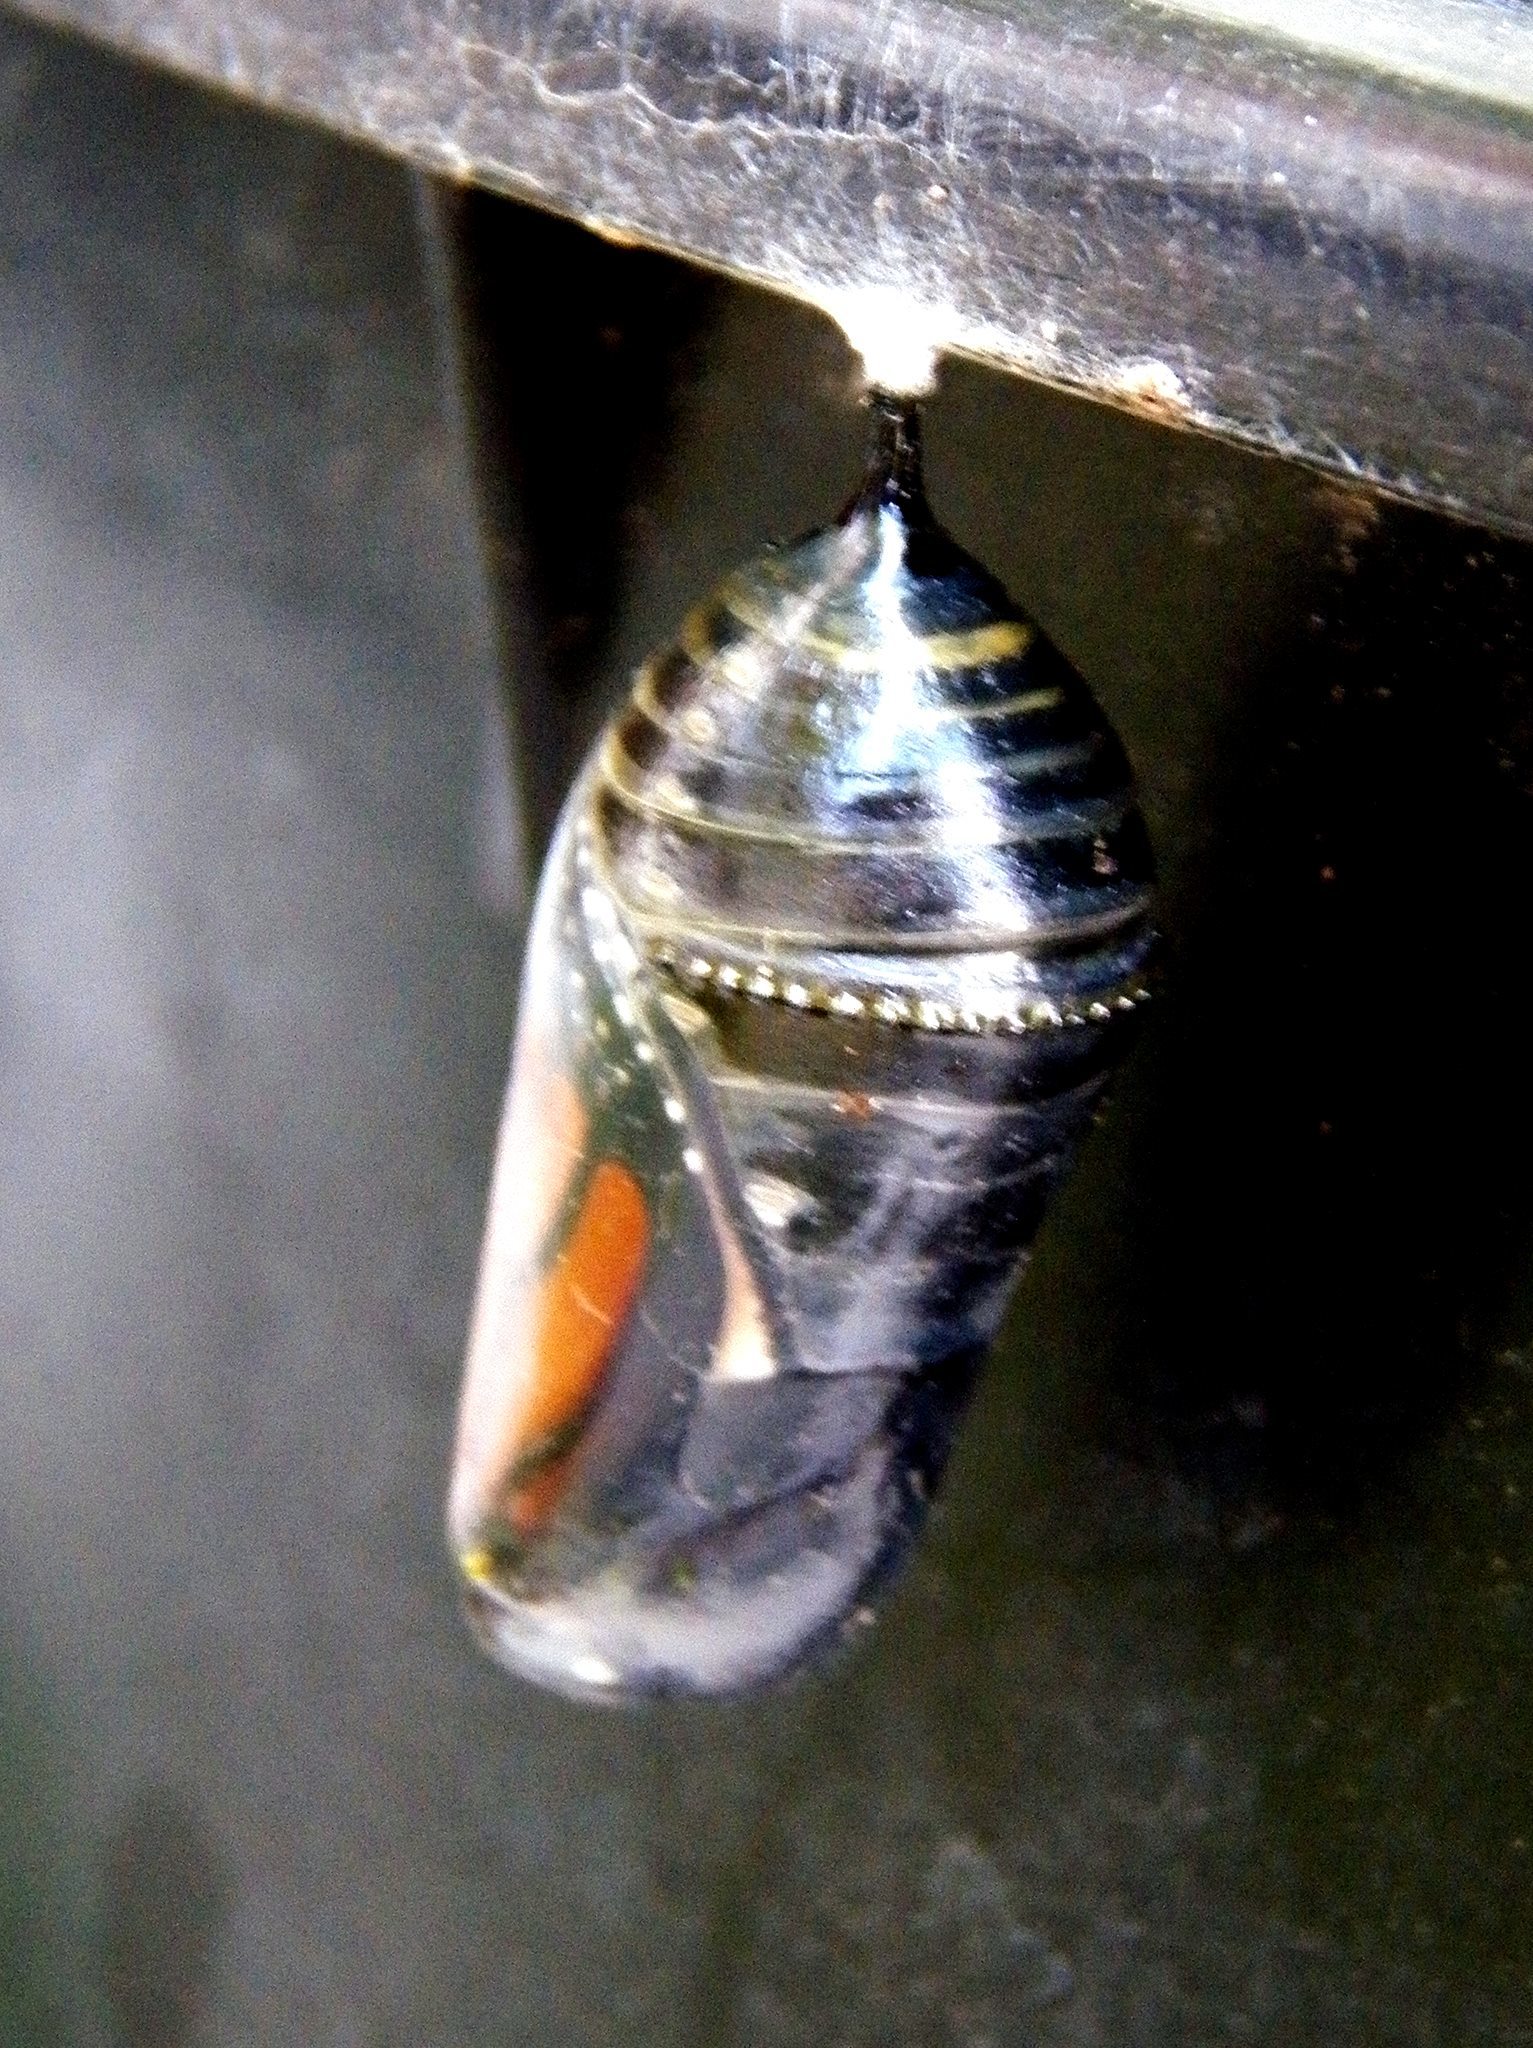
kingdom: Animalia
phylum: Arthropoda
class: Insecta
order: Lepidoptera
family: Nymphalidae
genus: Danaus
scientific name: Danaus plexippus
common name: Monarch
